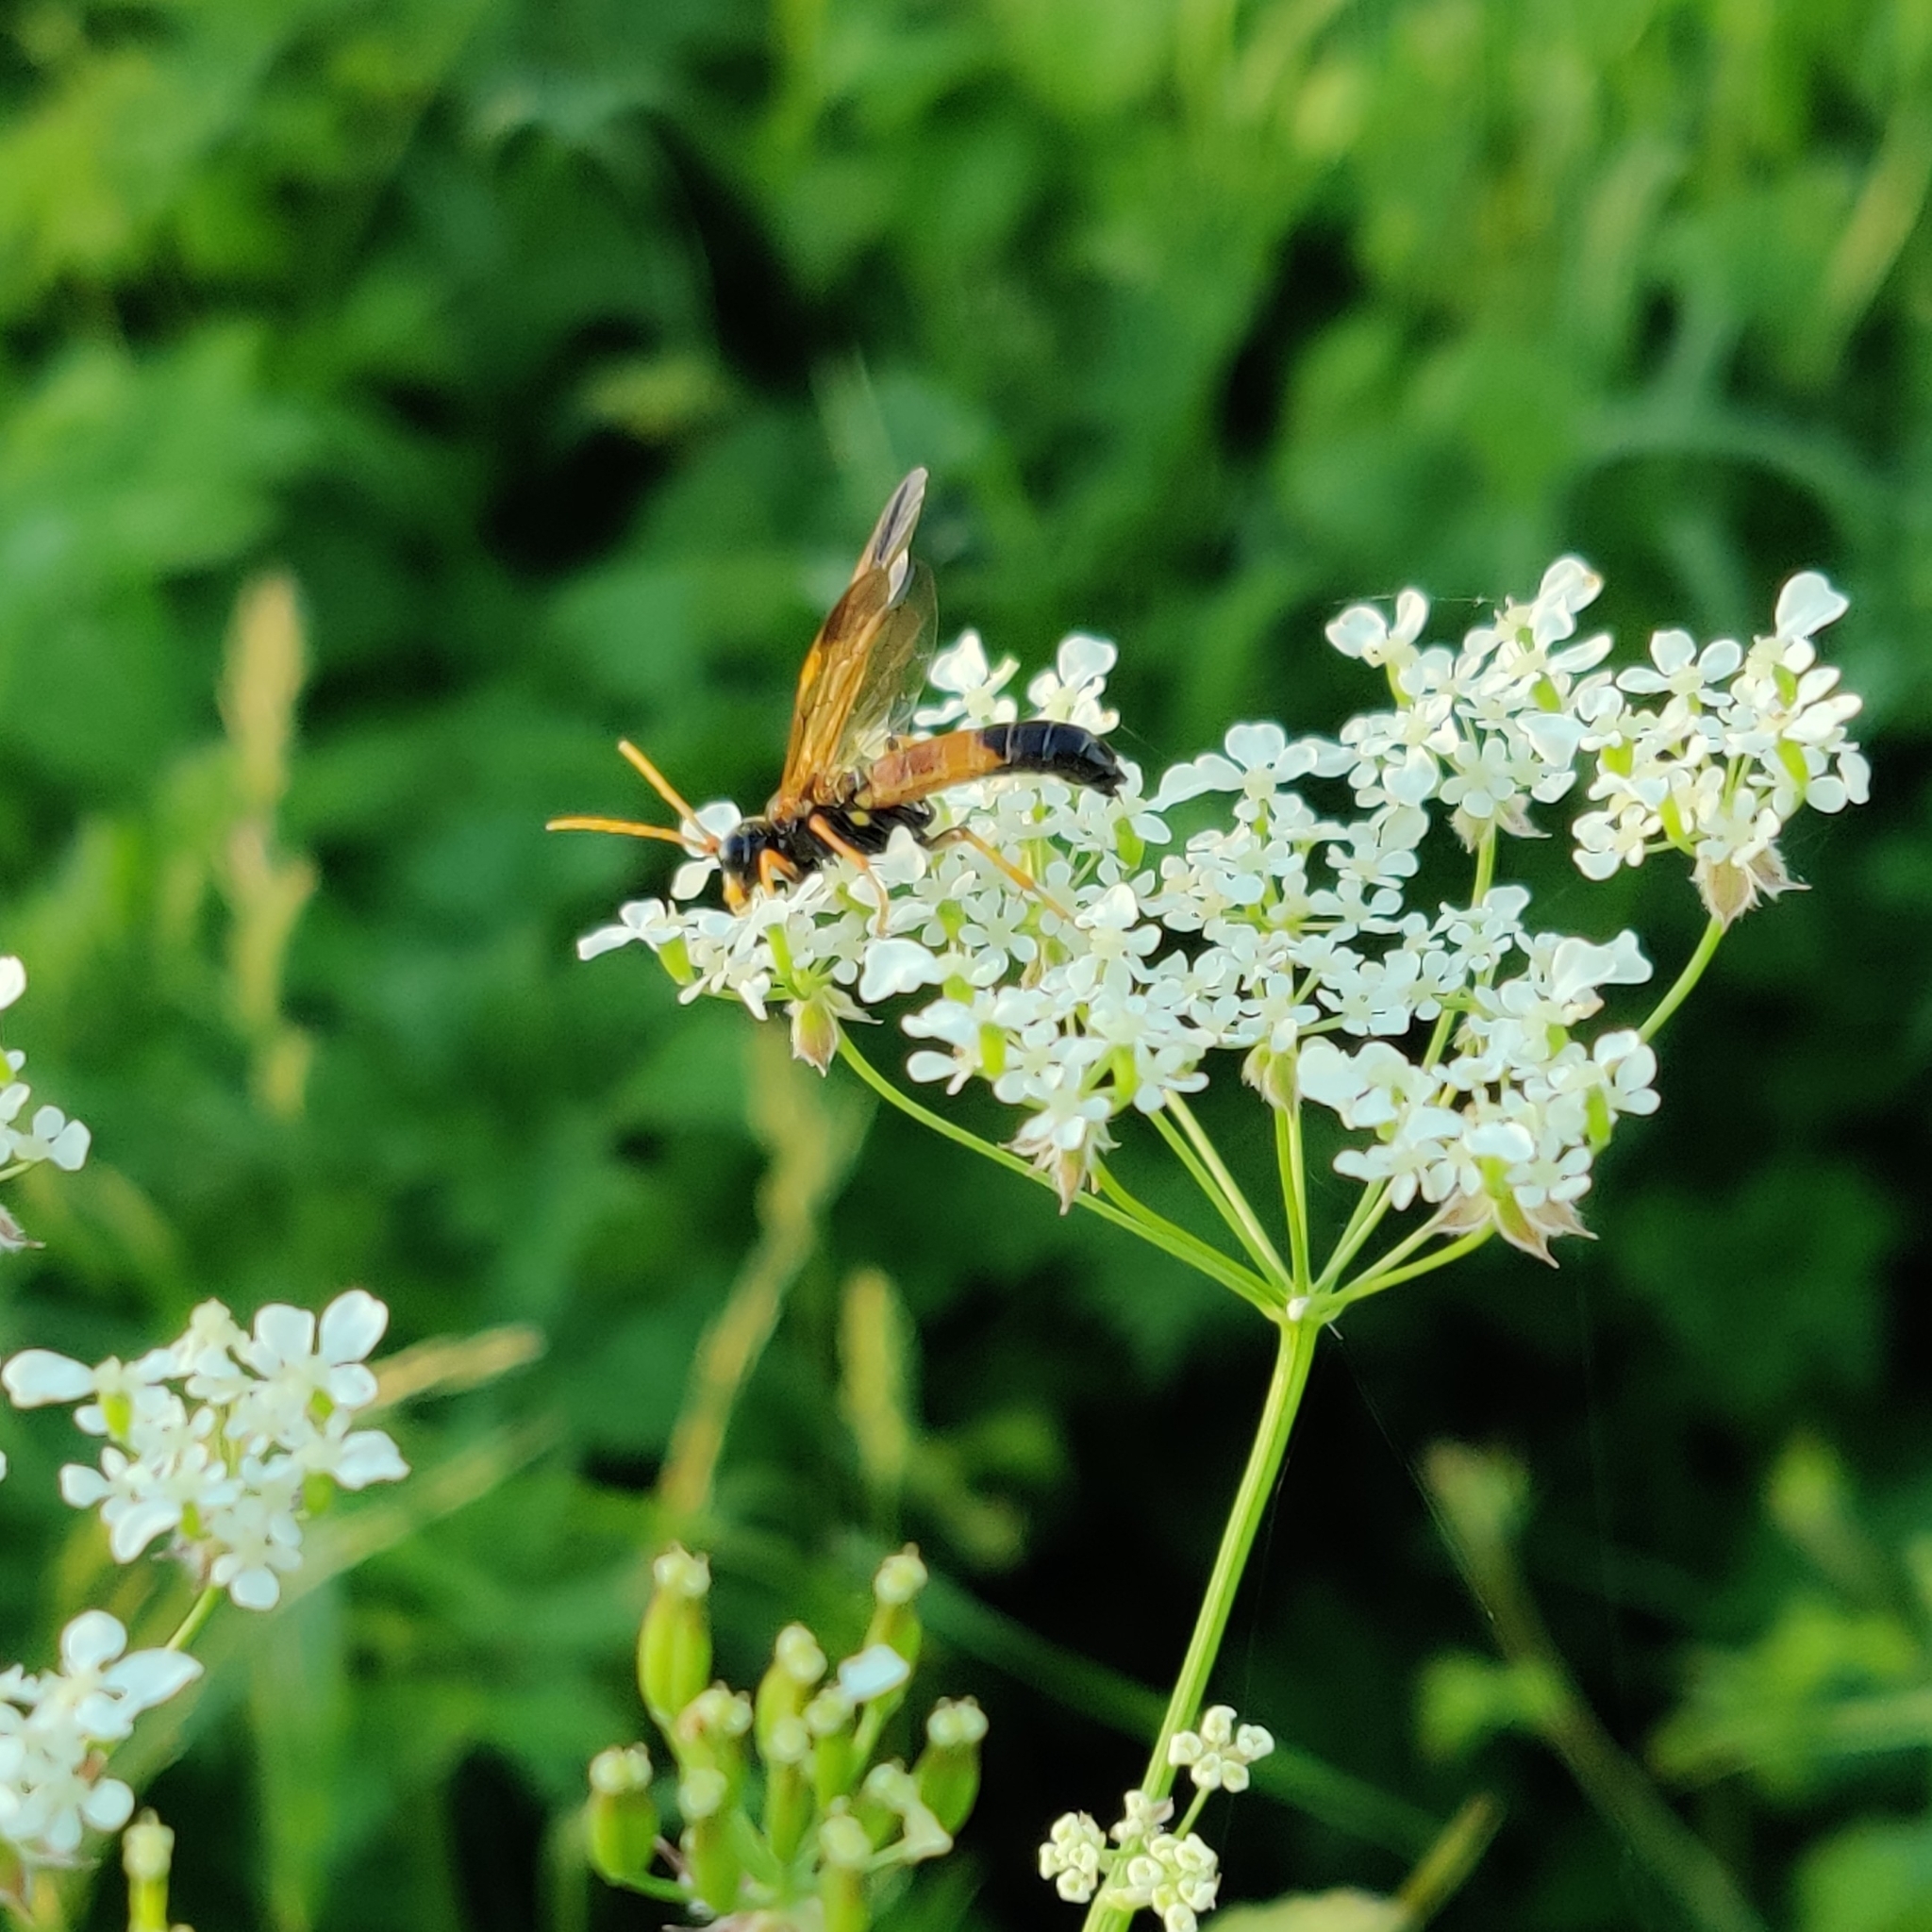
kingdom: Animalia
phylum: Arthropoda
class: Insecta
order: Hymenoptera
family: Tenthredinidae
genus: Tenthredo
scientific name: Tenthredo campestris
